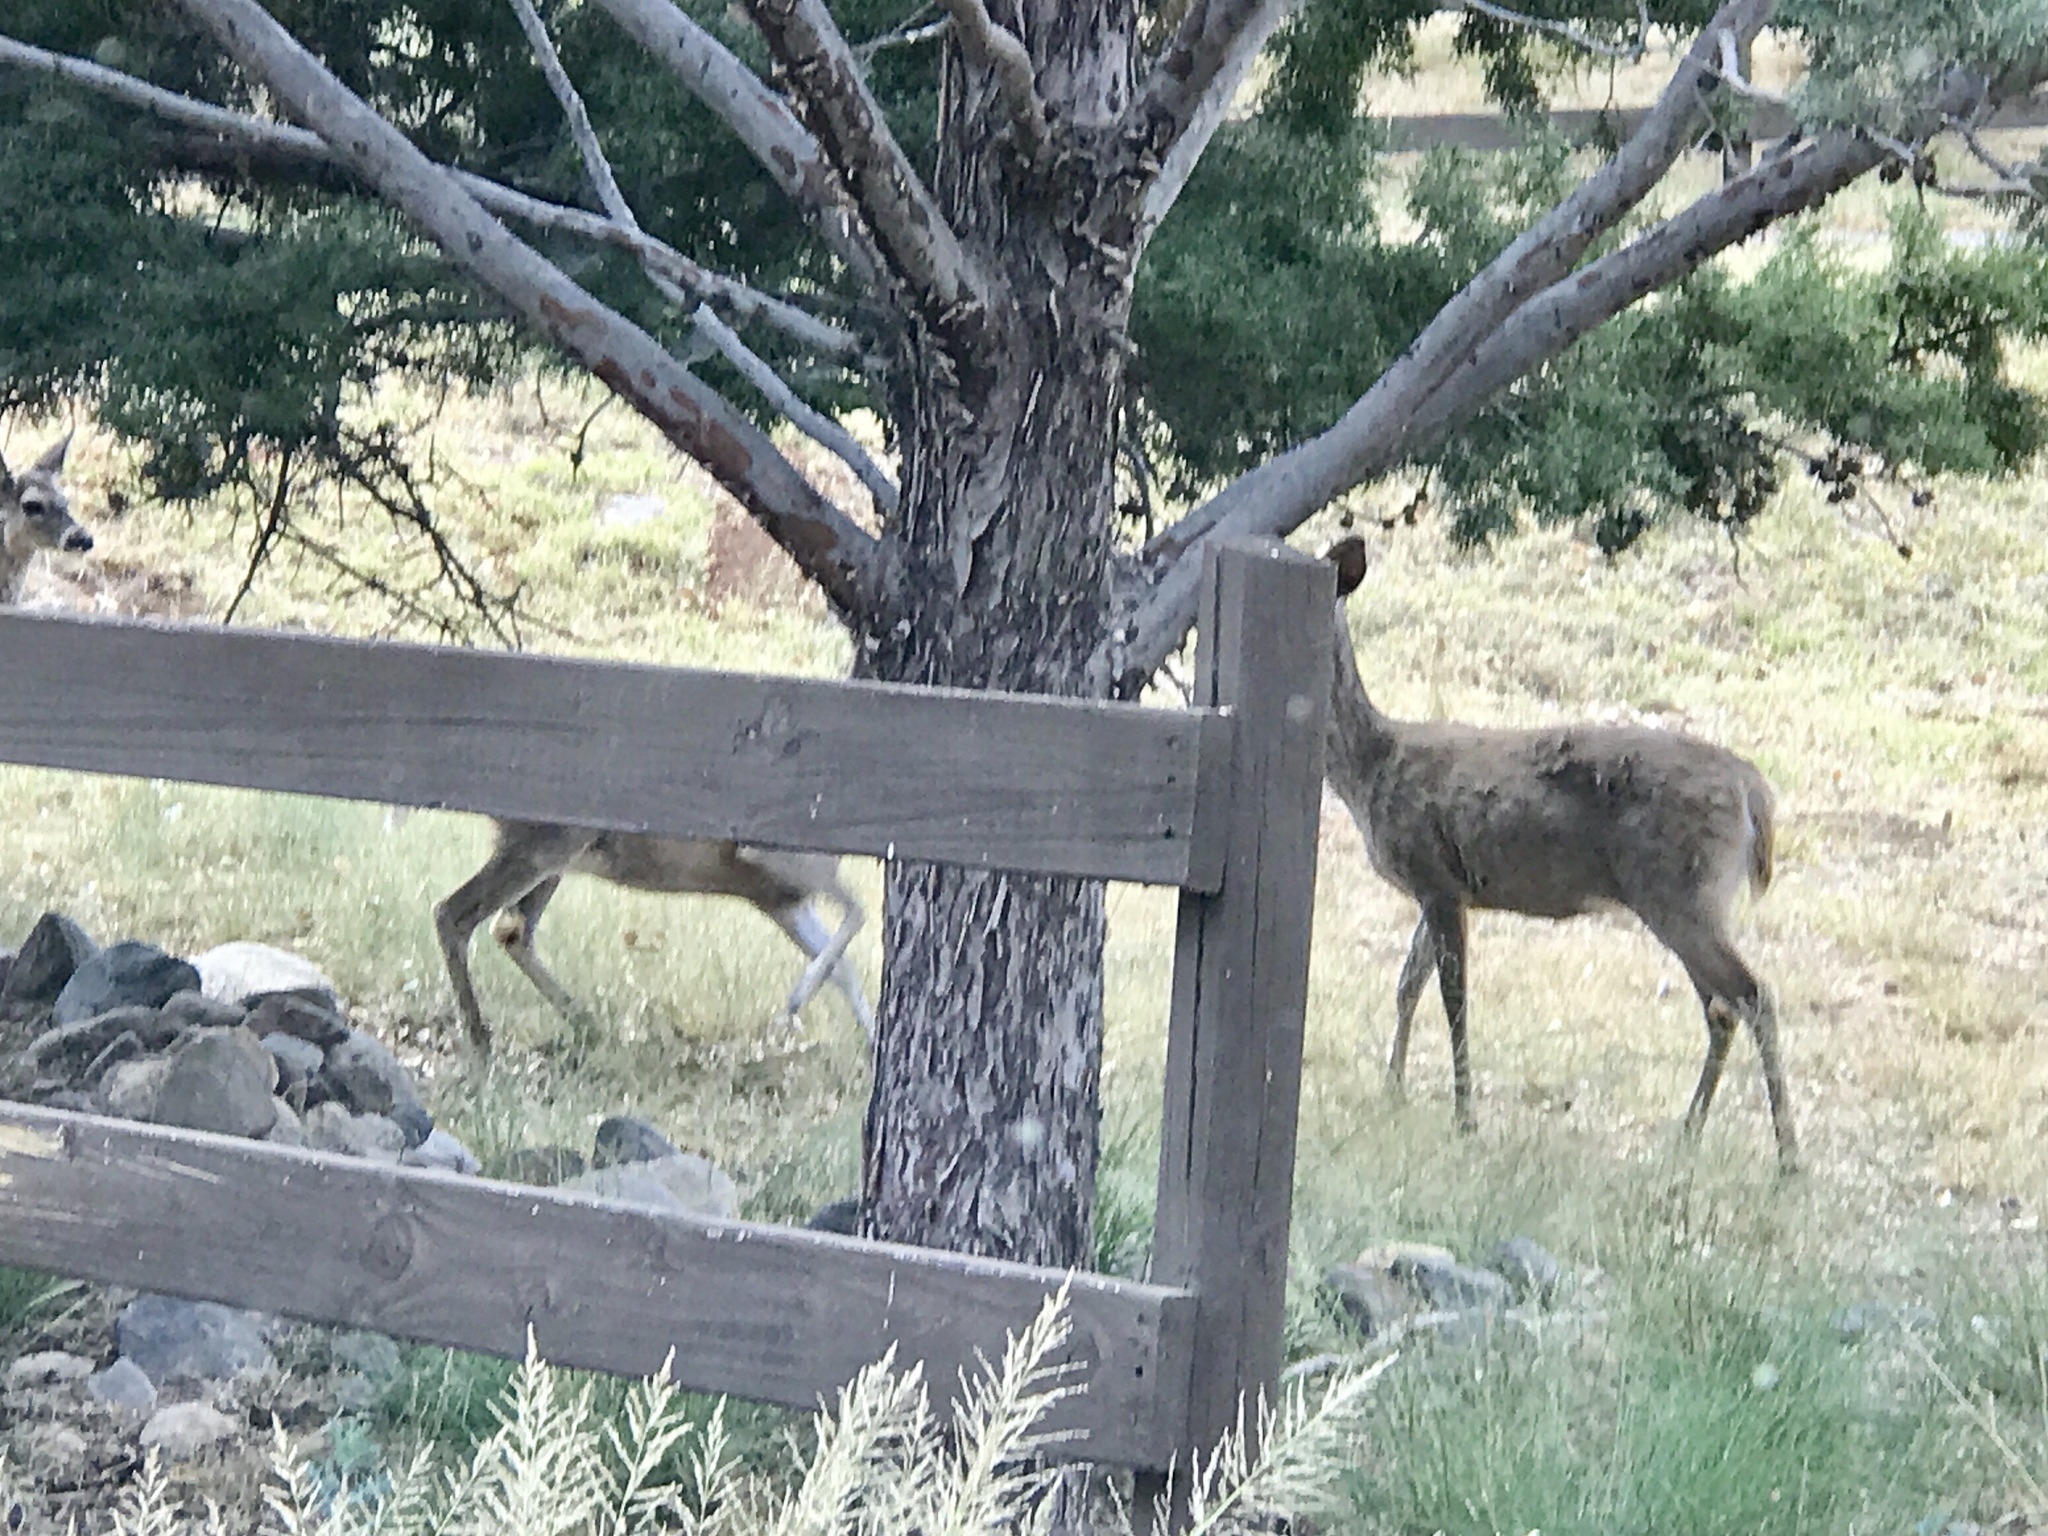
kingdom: Animalia
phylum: Chordata
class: Mammalia
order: Artiodactyla
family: Cervidae
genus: Odocoileus
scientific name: Odocoileus virginianus
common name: White-tailed deer
